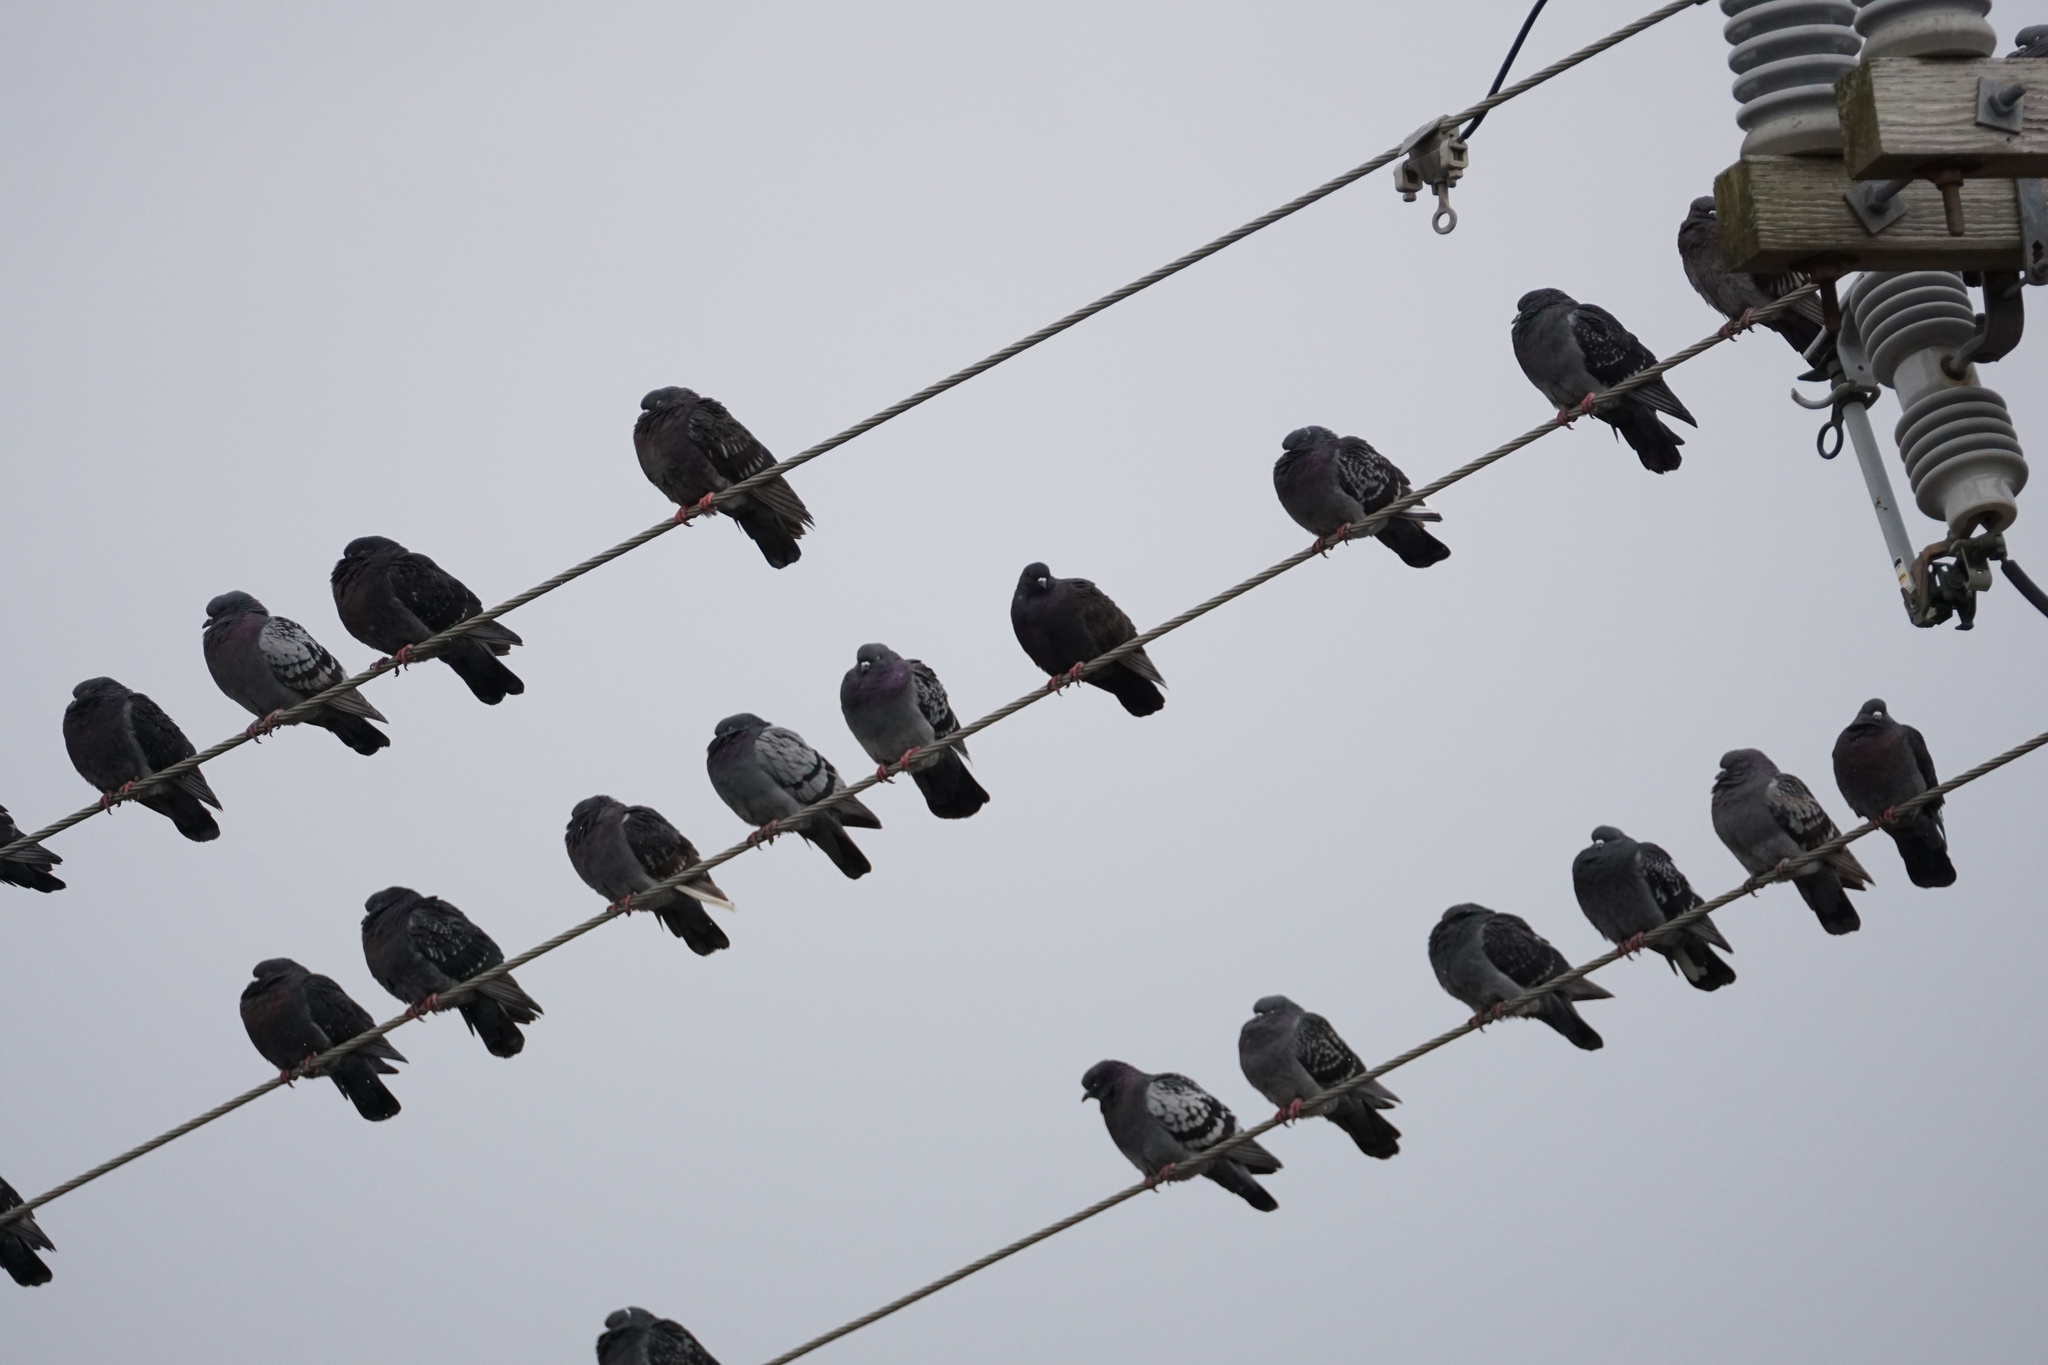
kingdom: Animalia
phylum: Chordata
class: Aves
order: Columbiformes
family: Columbidae
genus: Columba
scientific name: Columba livia
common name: Rock pigeon
